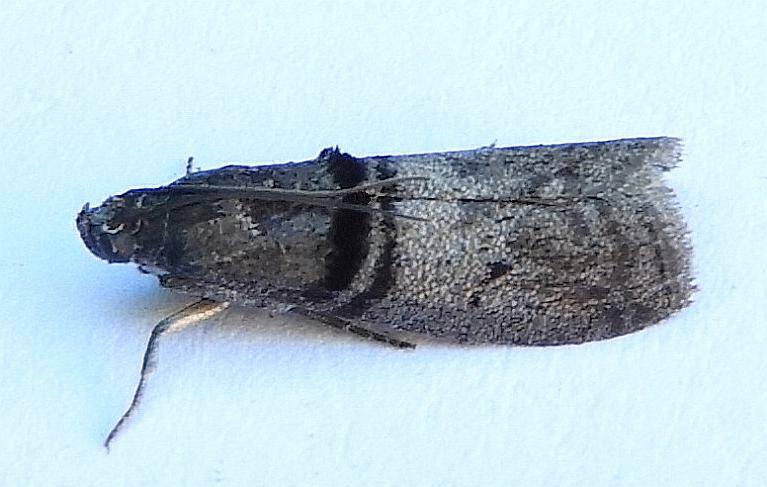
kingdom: Animalia
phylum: Arthropoda
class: Insecta
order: Lepidoptera
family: Pyralidae
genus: Immyrla
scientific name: Immyrla nigrovittella
